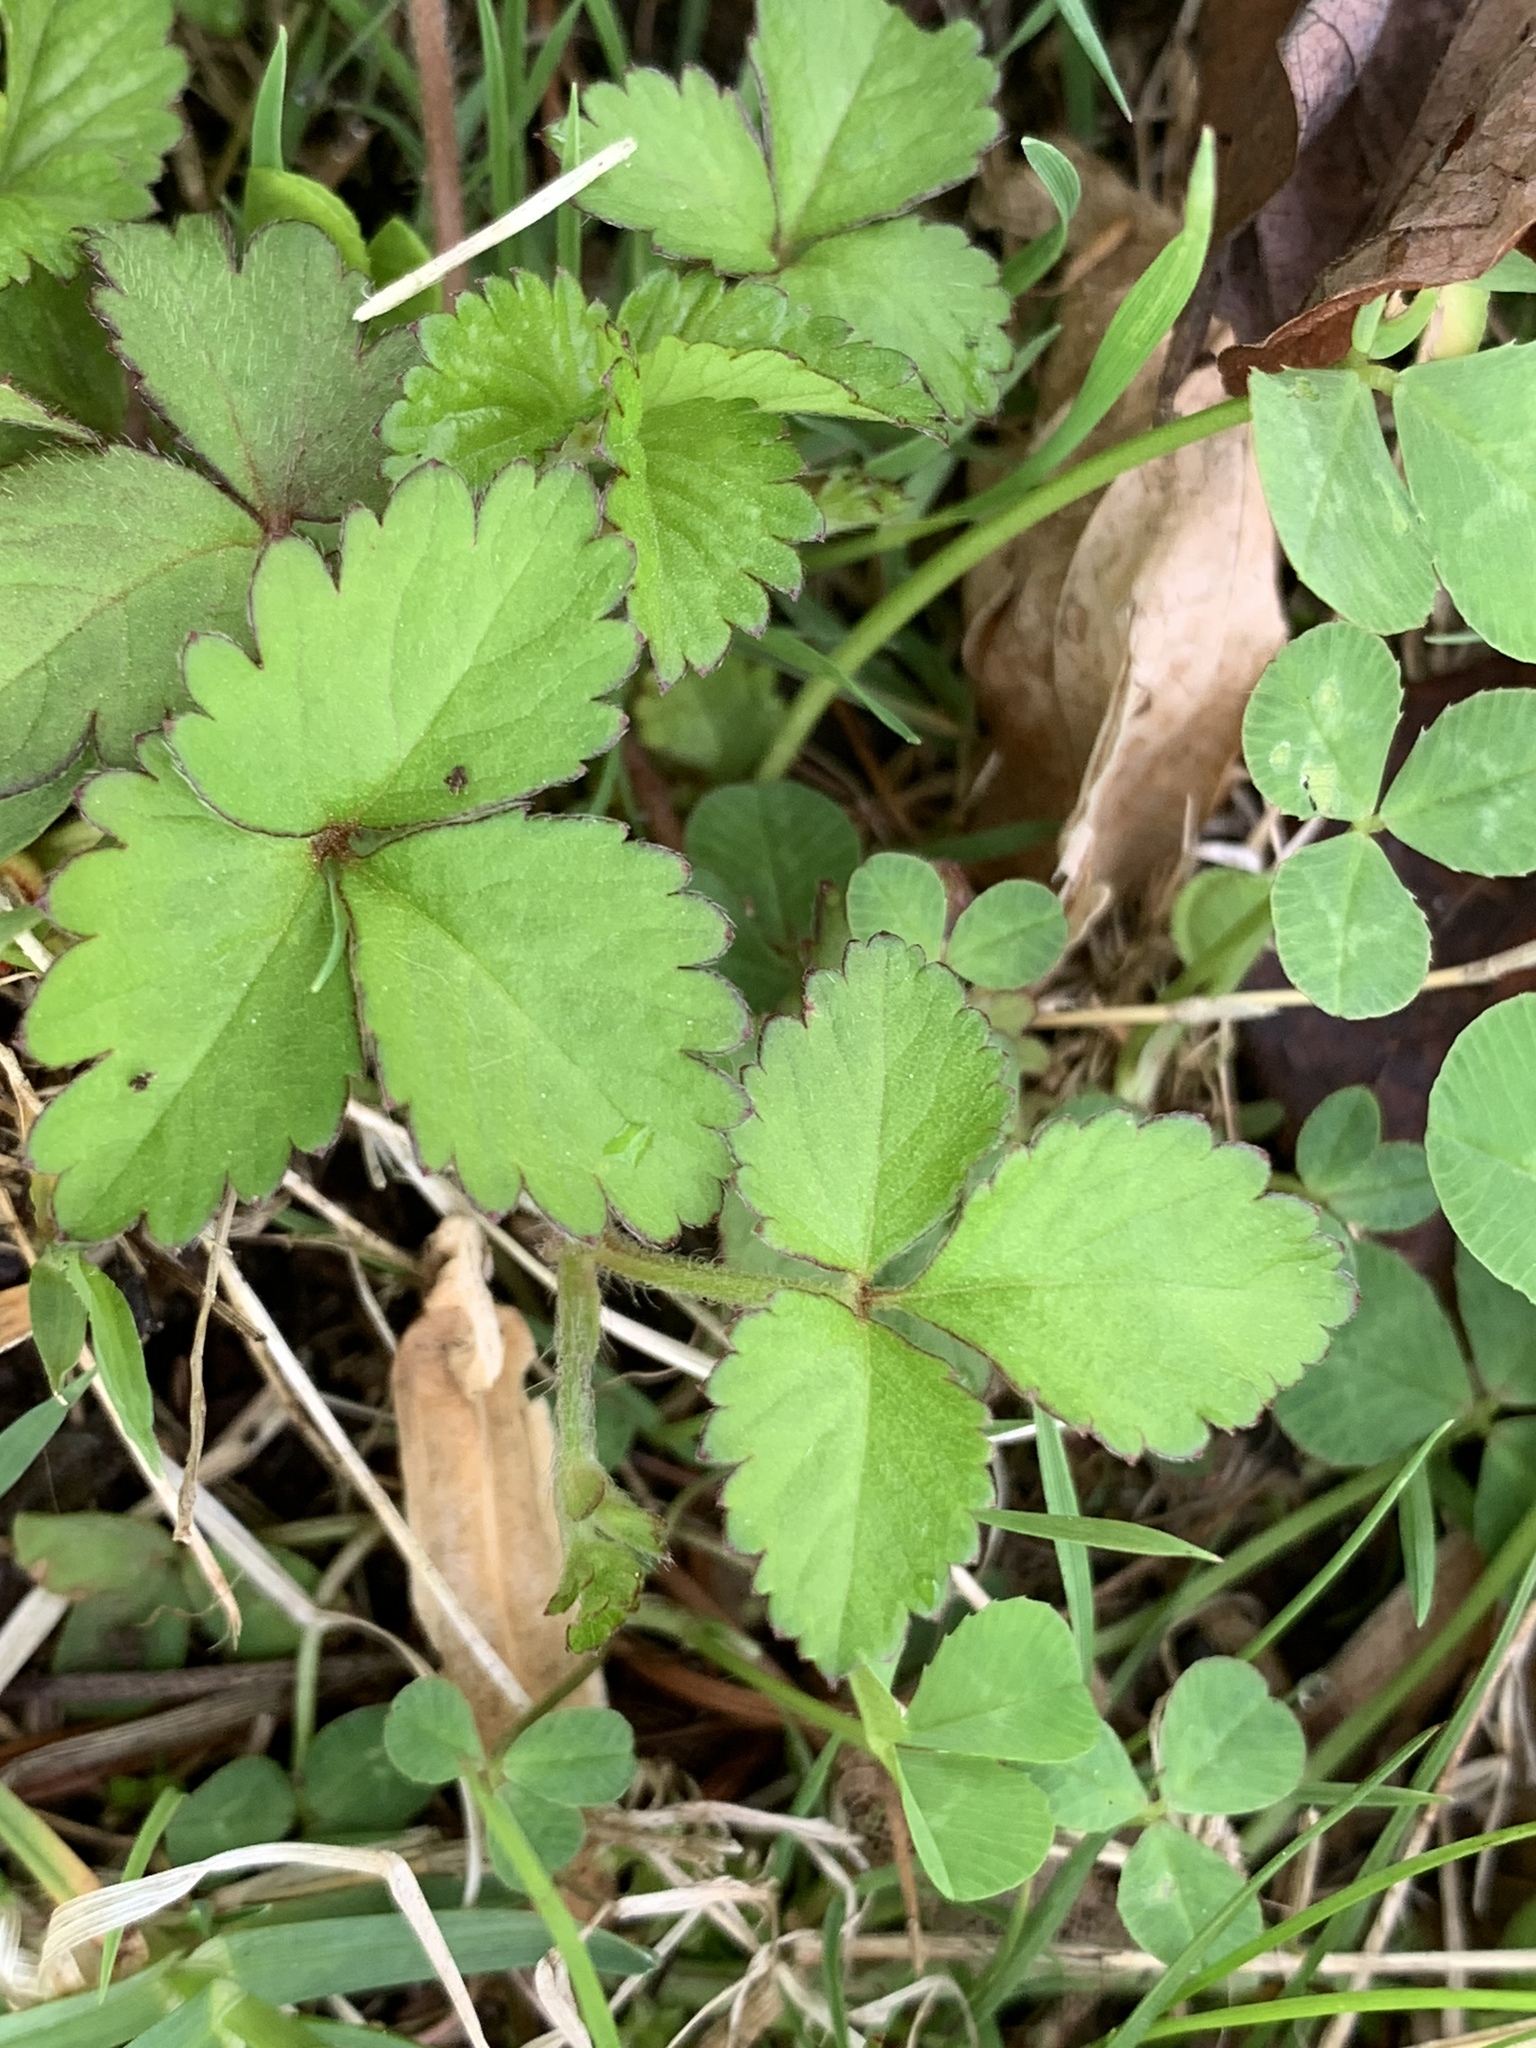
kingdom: Plantae
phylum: Tracheophyta
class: Magnoliopsida
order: Rosales
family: Rosaceae
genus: Potentilla
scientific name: Potentilla indica
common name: Yellow-flowered strawberry
